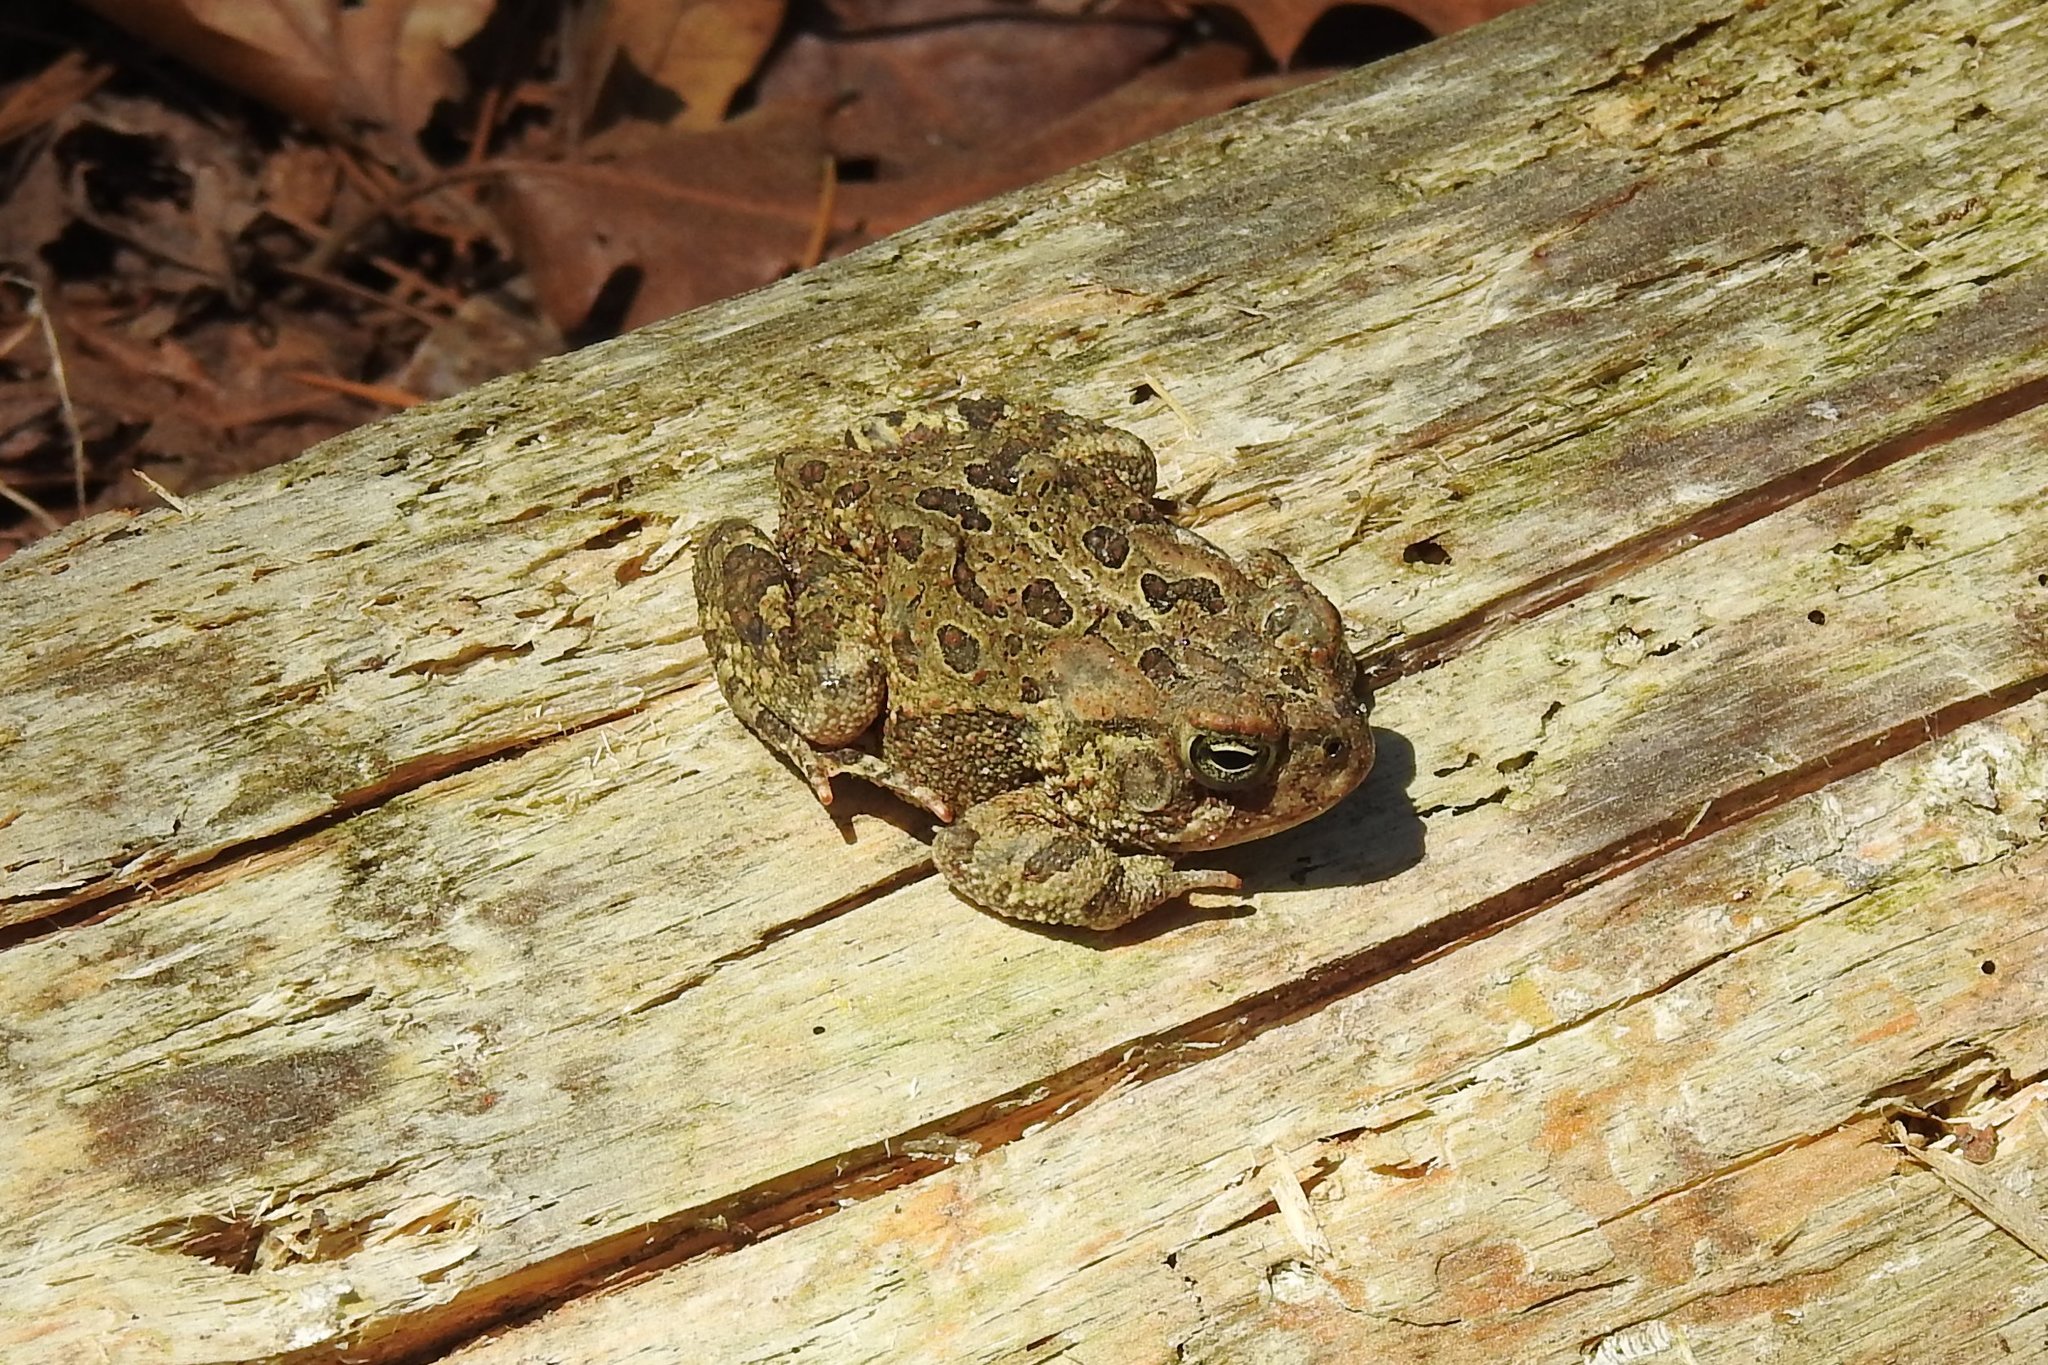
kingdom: Animalia
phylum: Chordata
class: Amphibia
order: Anura
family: Bufonidae
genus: Anaxyrus
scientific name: Anaxyrus fowleri
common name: Fowler's toad
